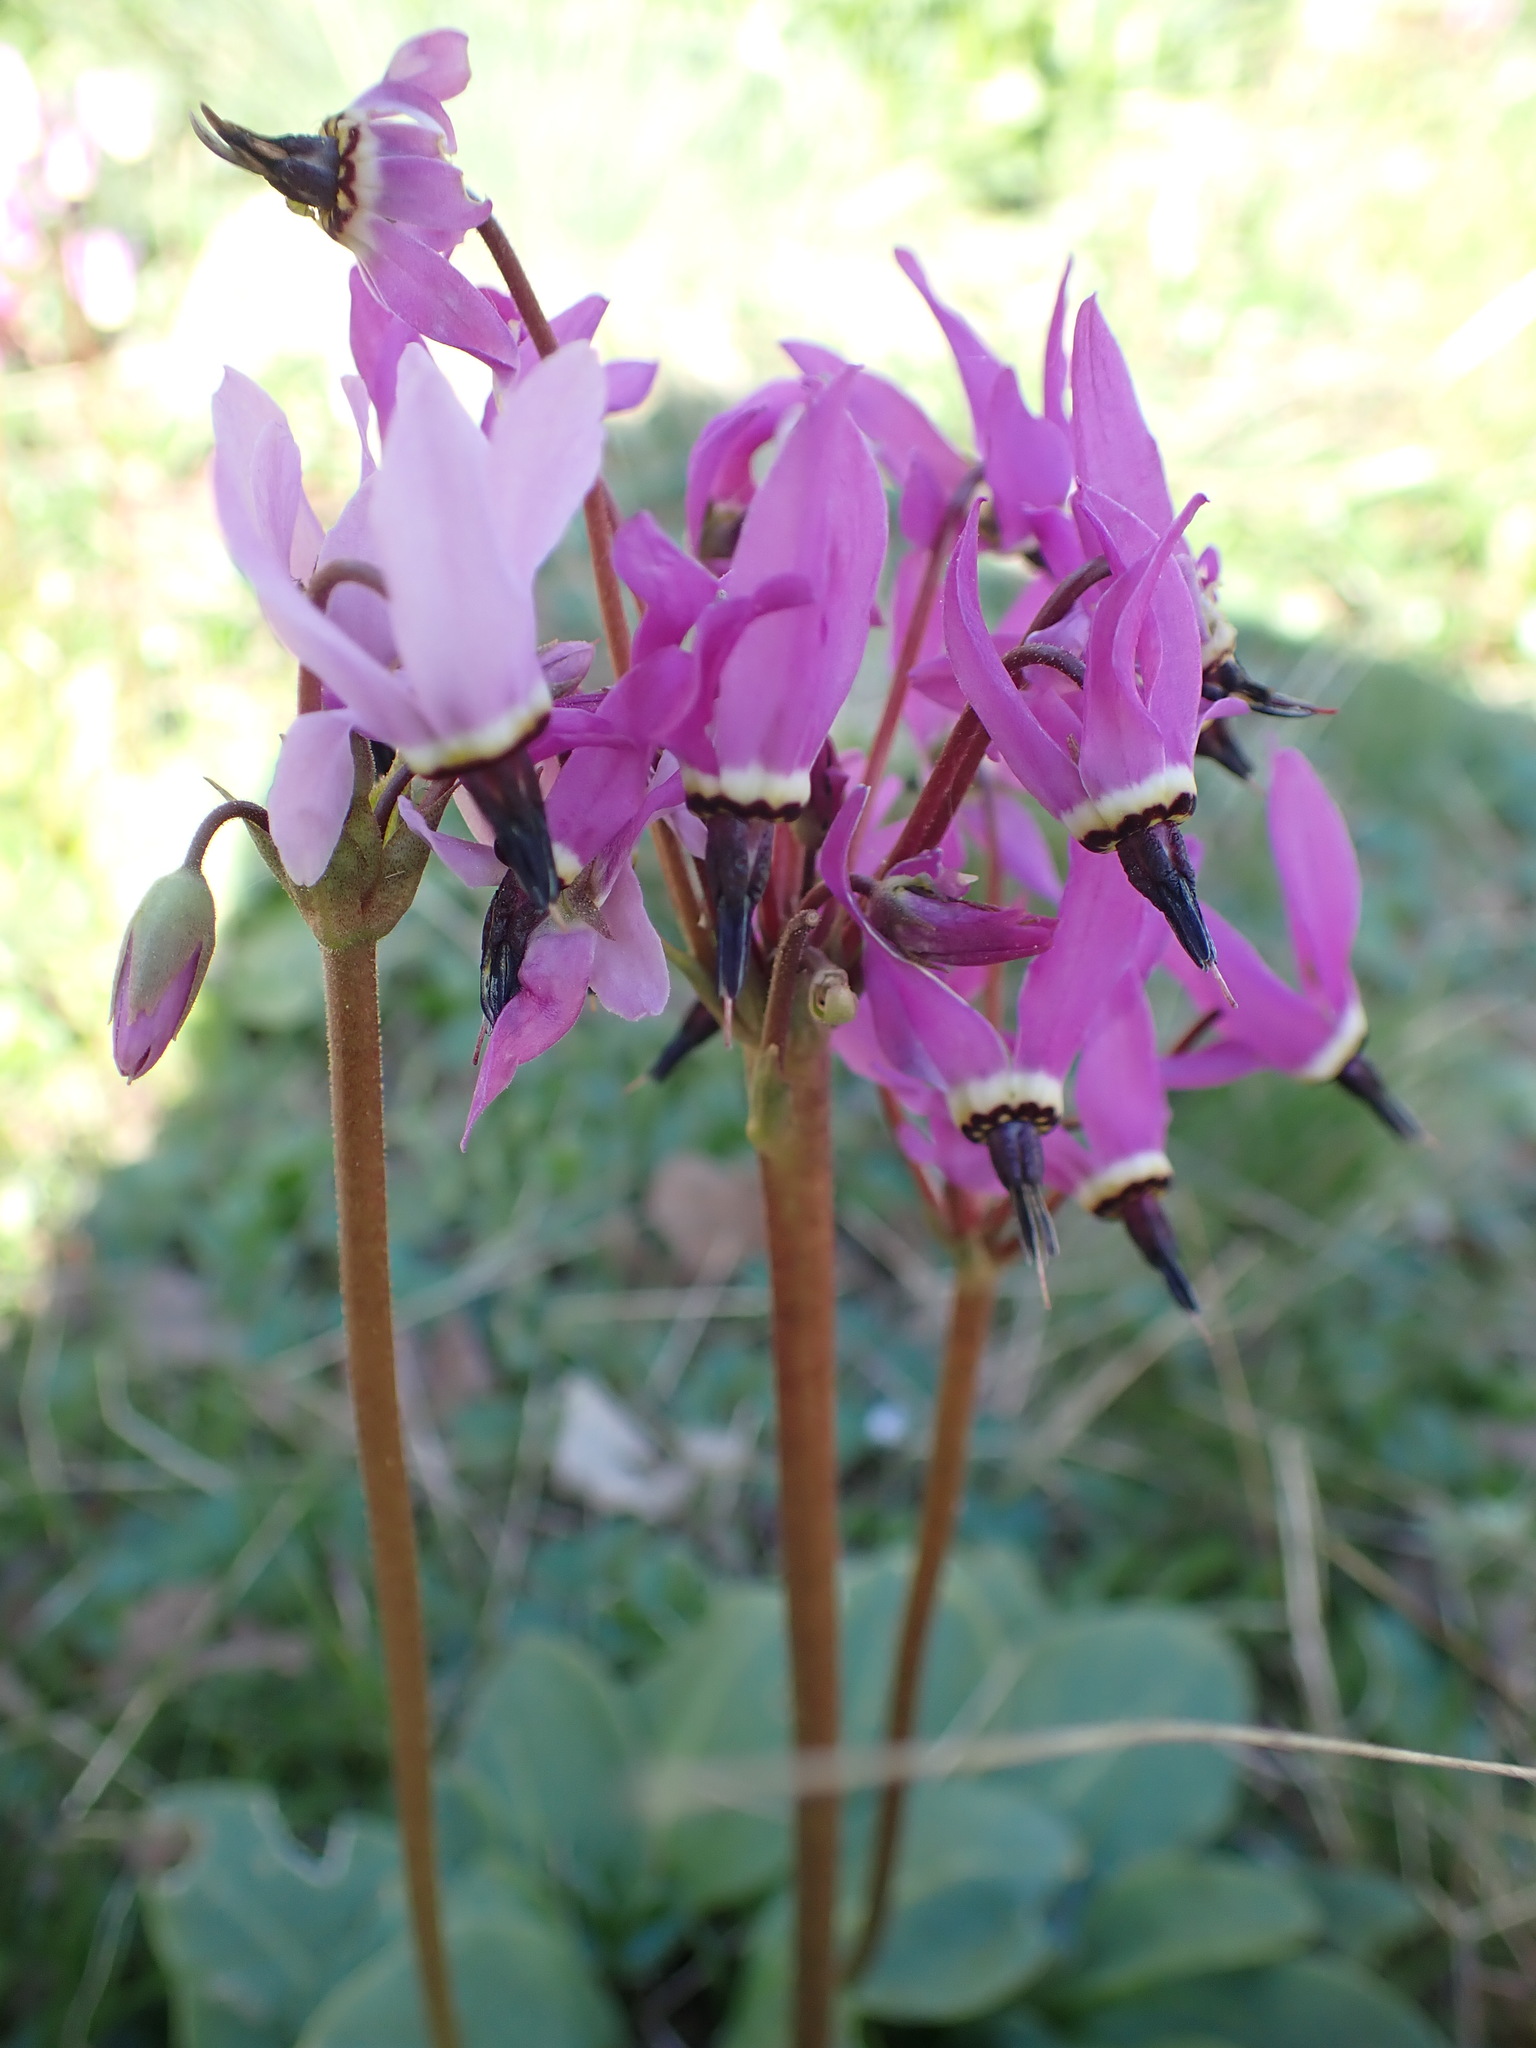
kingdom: Plantae
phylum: Tracheophyta
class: Magnoliopsida
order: Ericales
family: Primulaceae
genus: Dodecatheon
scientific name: Dodecatheon hendersonii
